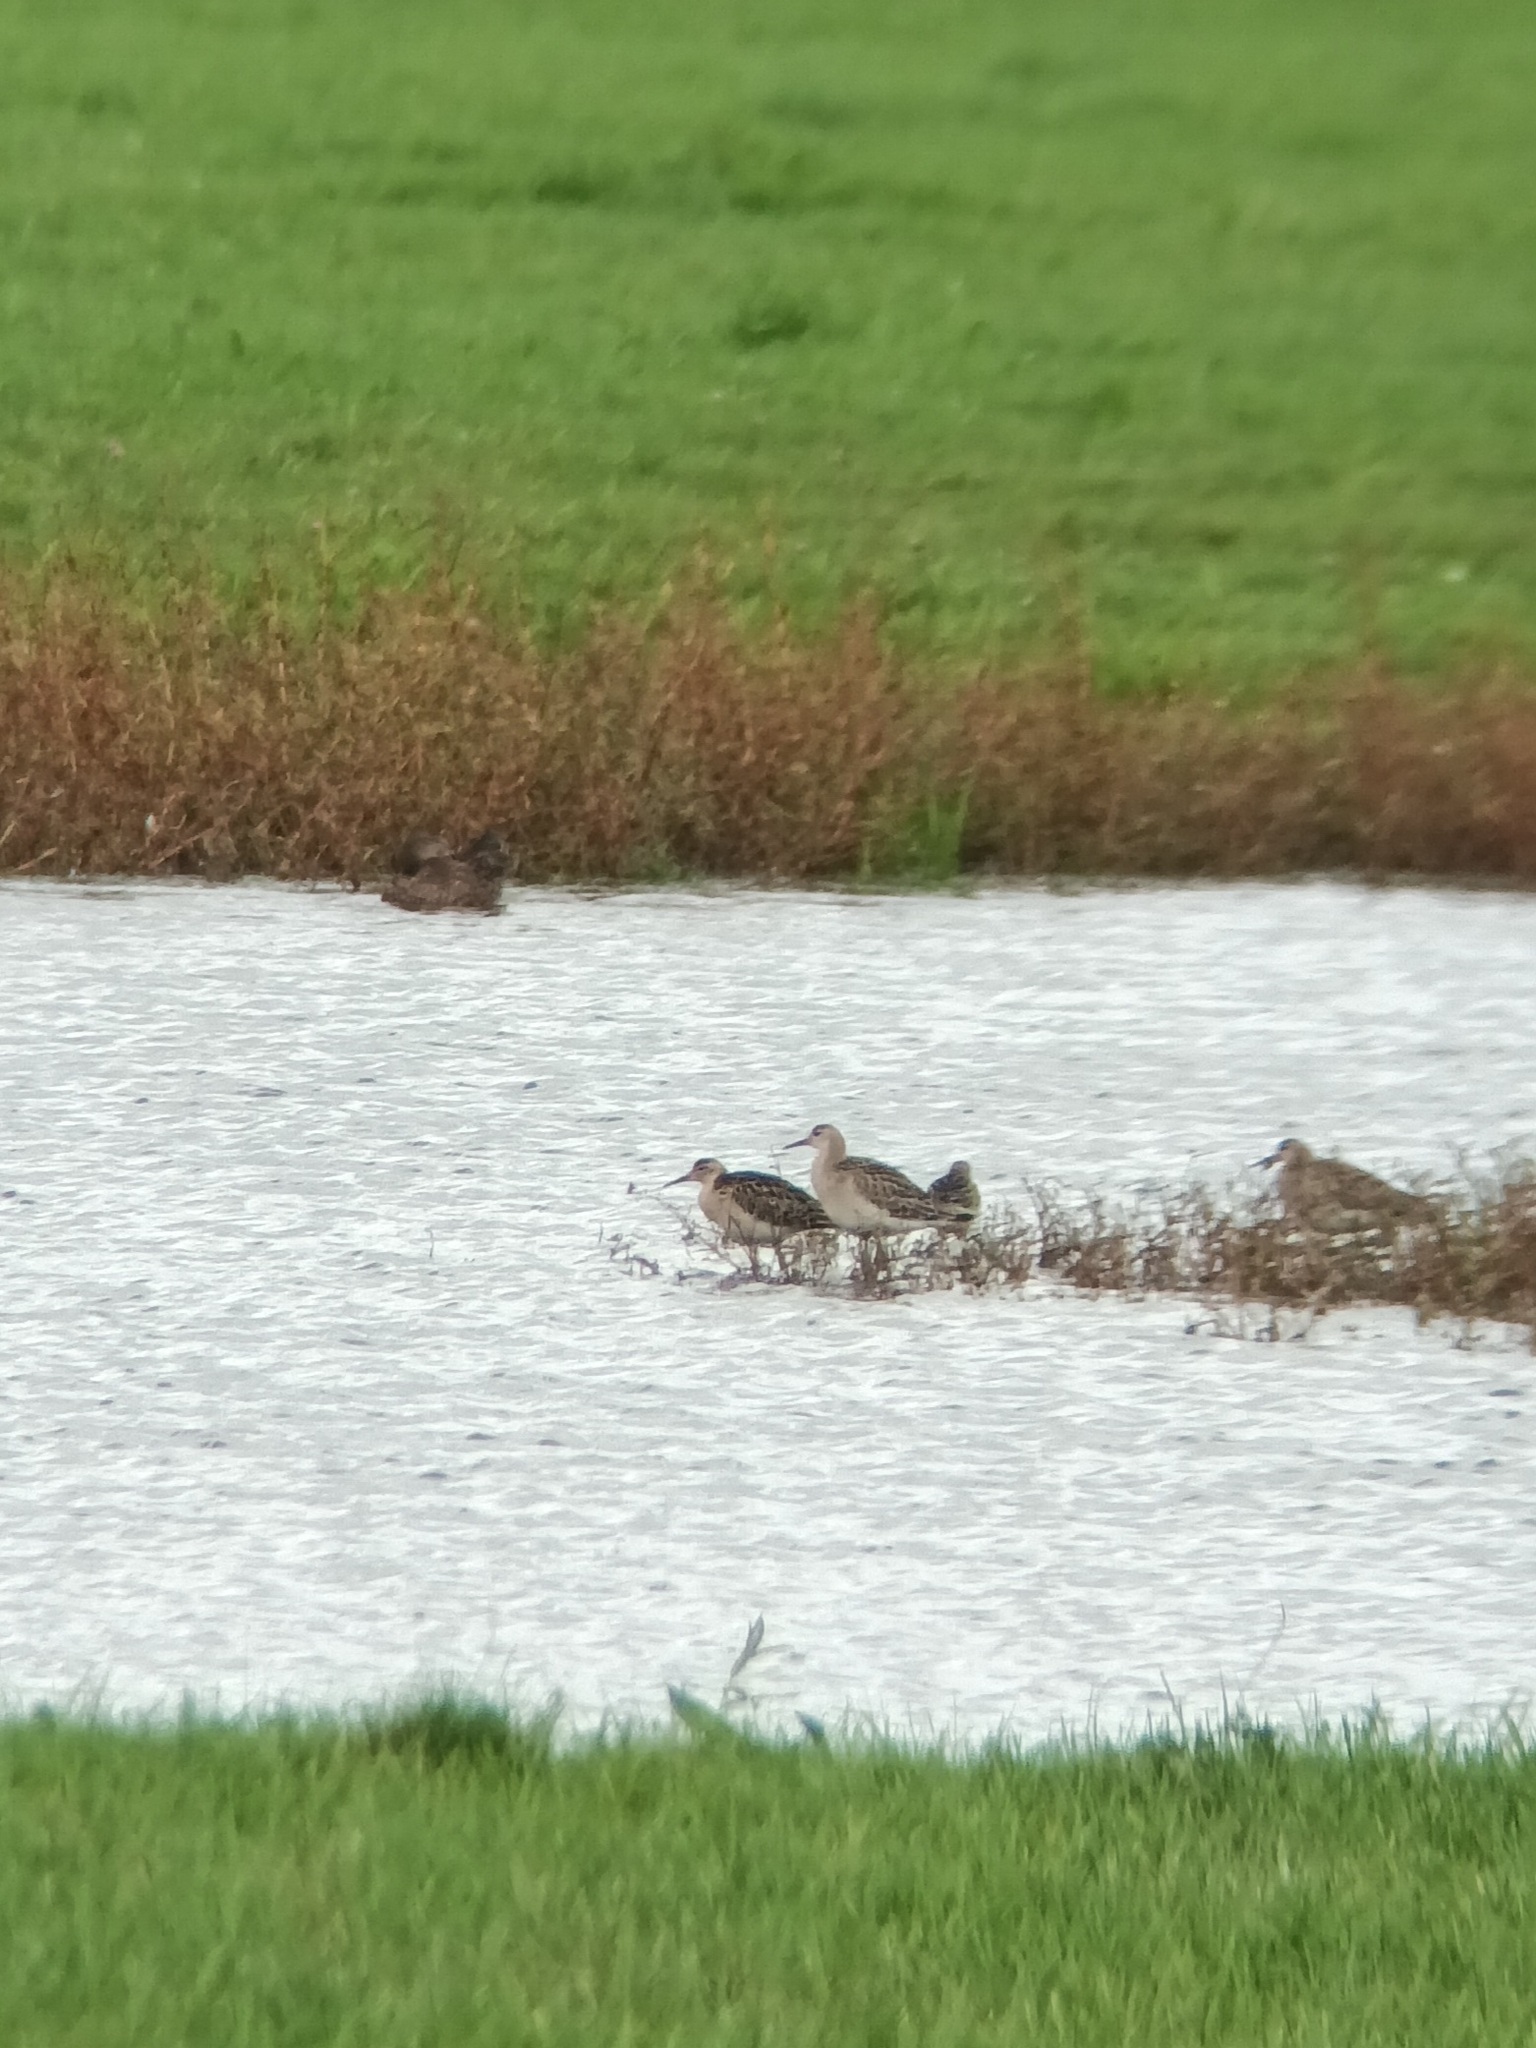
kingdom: Animalia
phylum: Chordata
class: Aves
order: Charadriiformes
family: Scolopacidae
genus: Calidris
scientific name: Calidris pugnax
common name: Ruff
